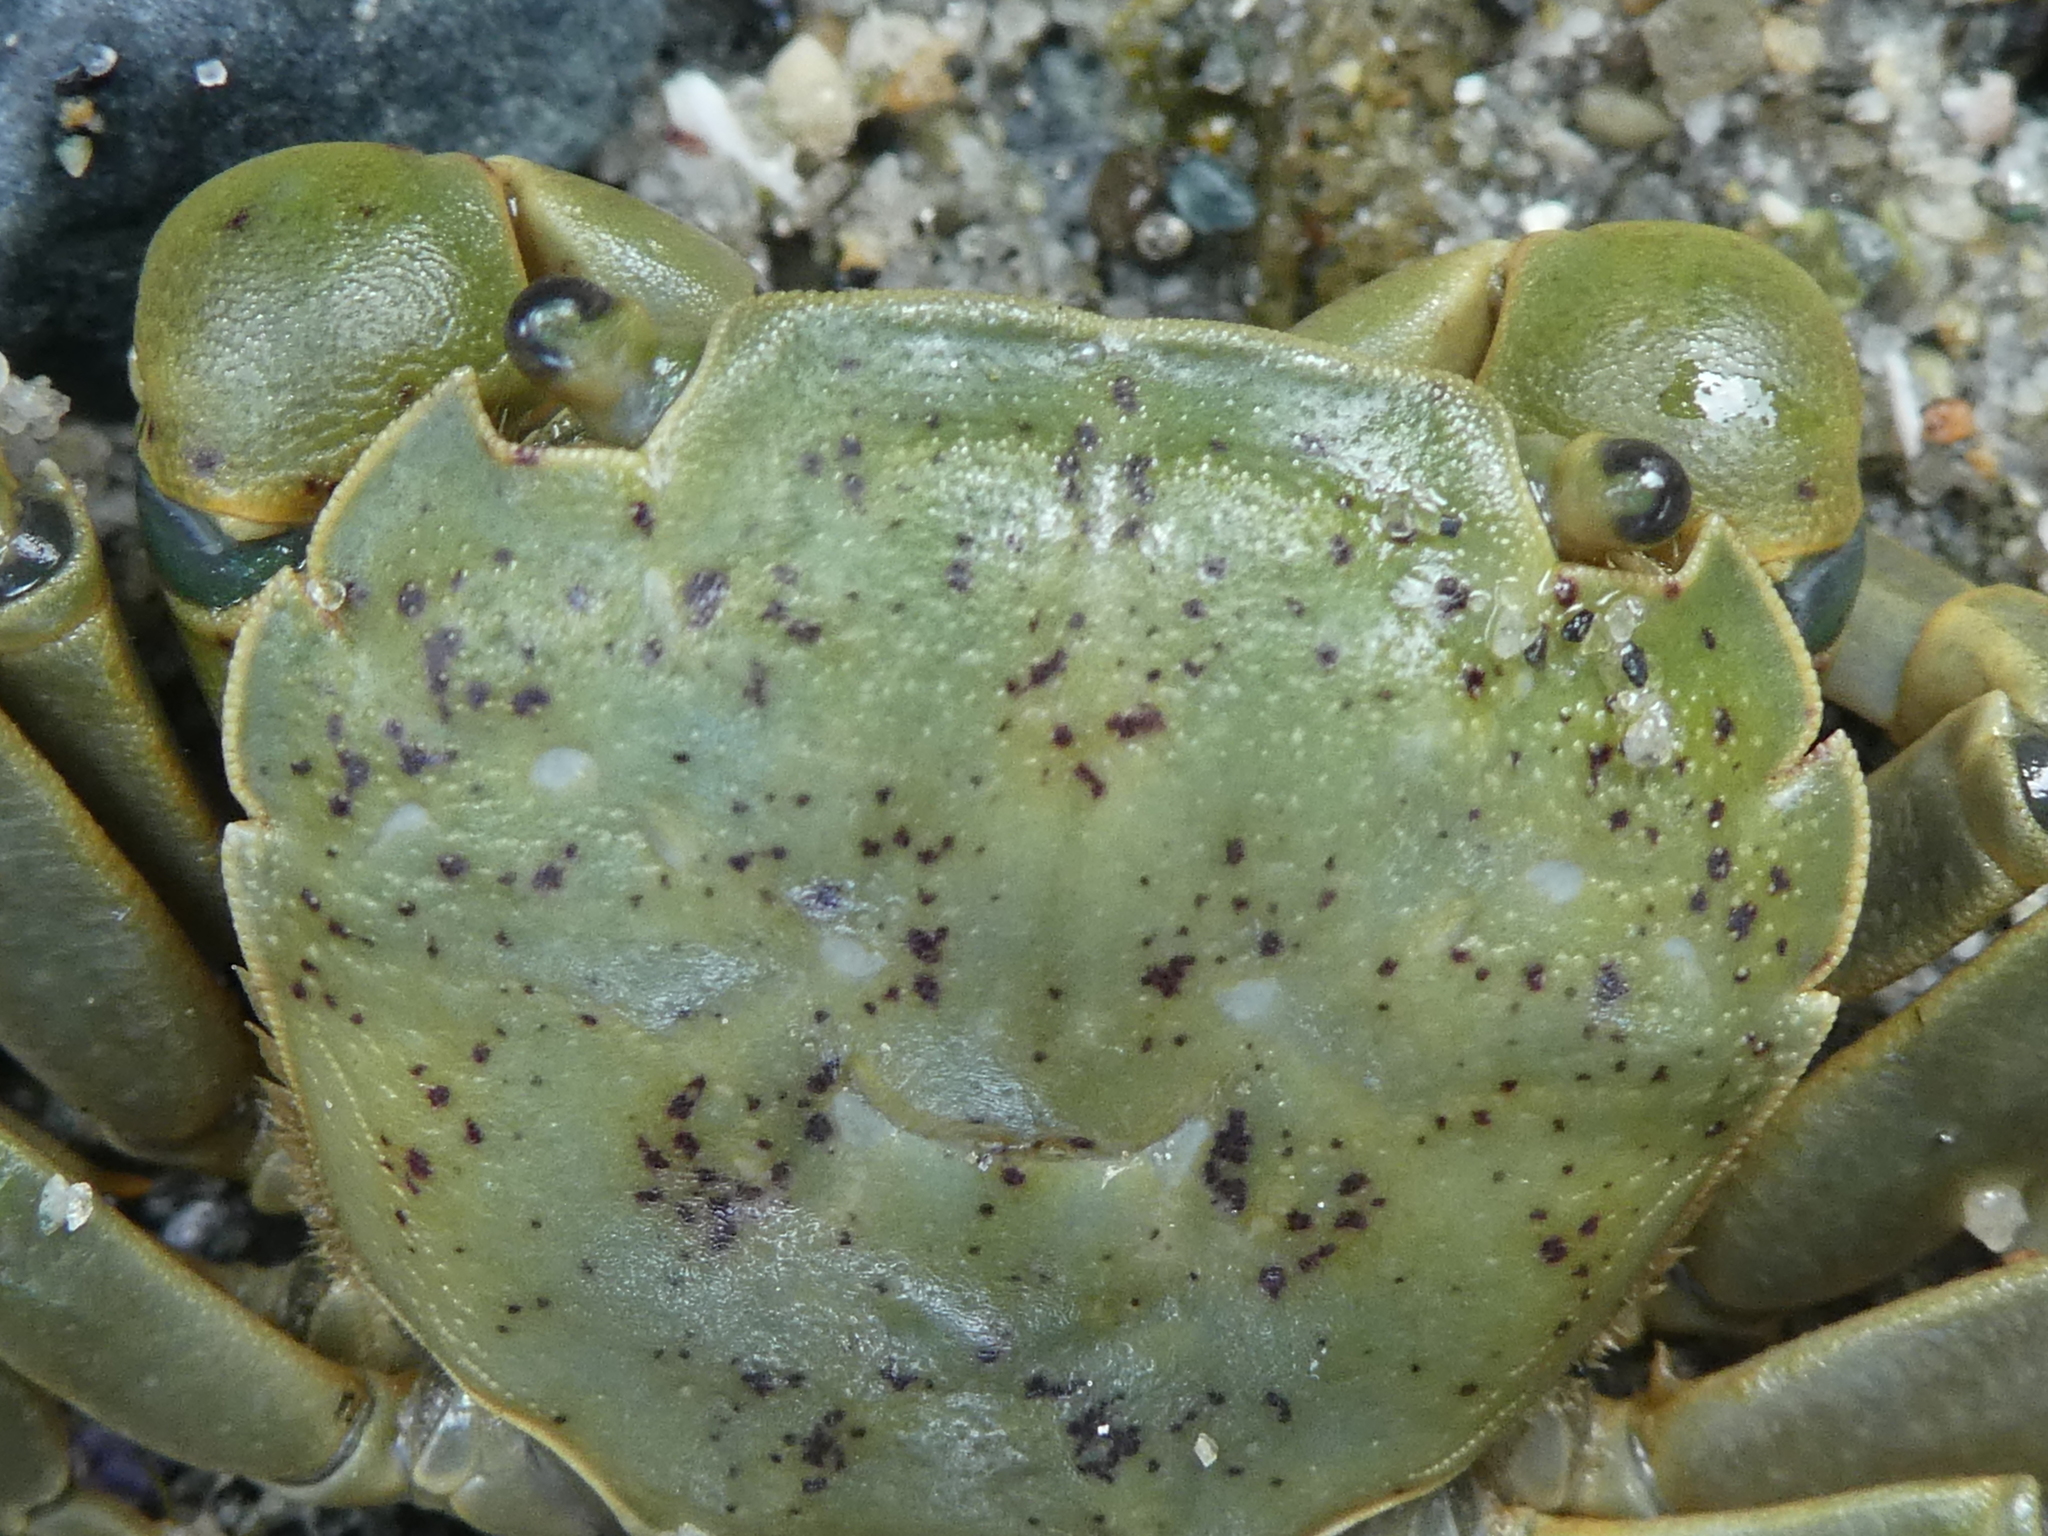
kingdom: Animalia
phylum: Arthropoda
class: Malacostraca
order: Decapoda
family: Varunidae
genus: Hemigrapsus
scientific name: Hemigrapsus nudus
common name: Purple shore crab
